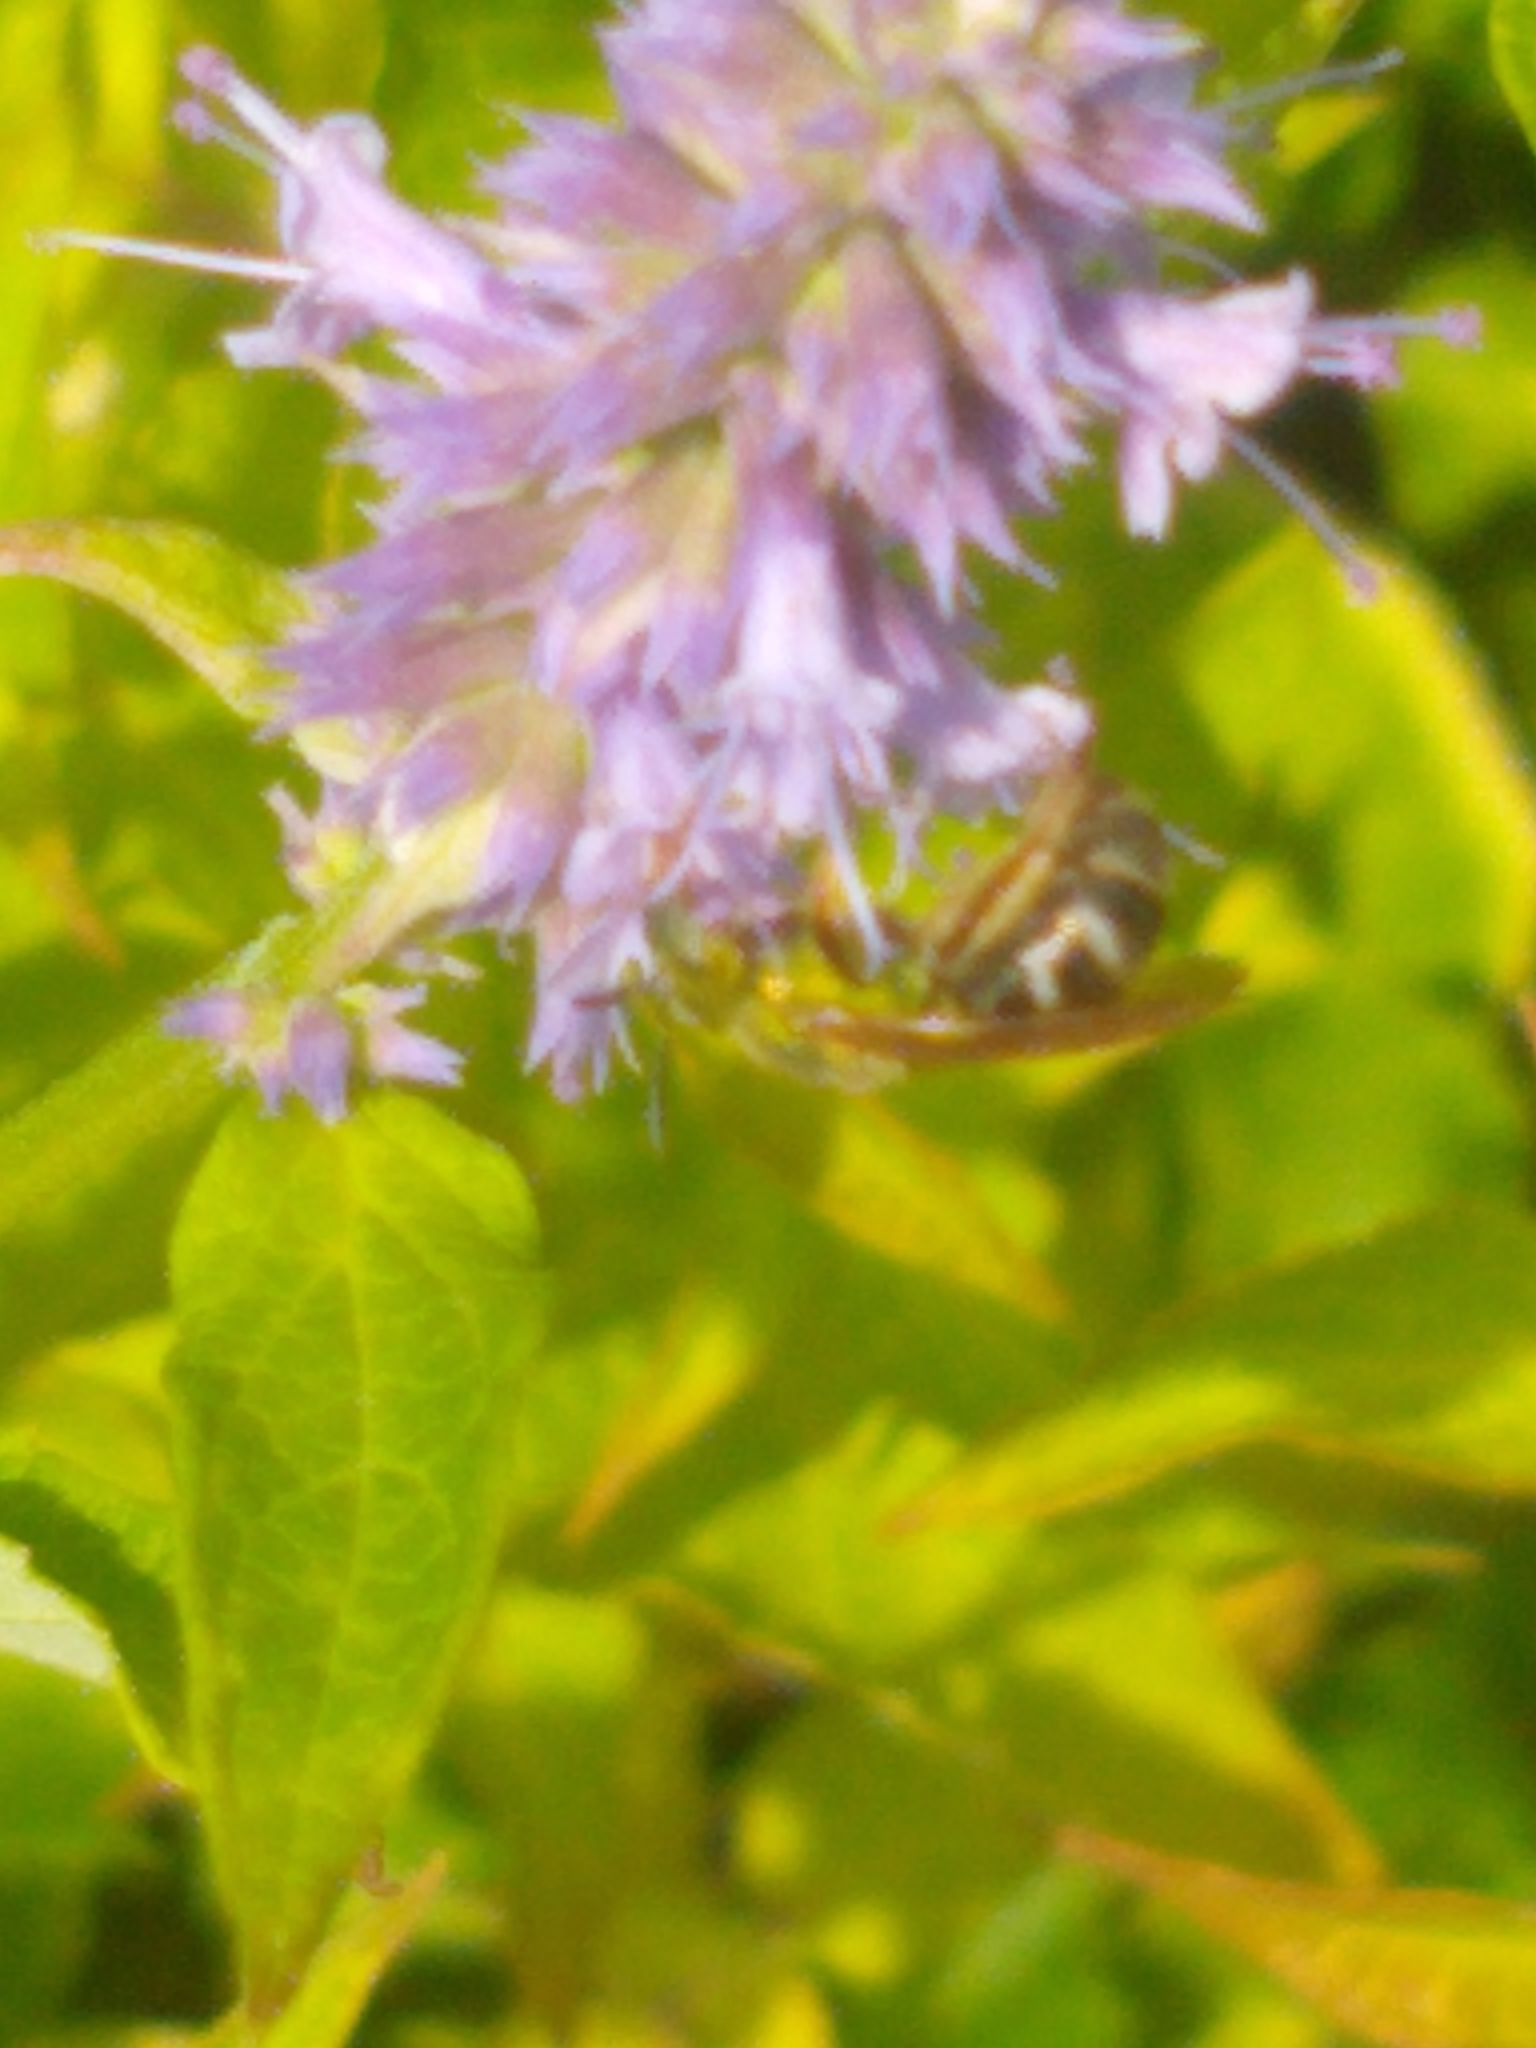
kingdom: Animalia
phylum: Arthropoda
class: Insecta
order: Hymenoptera
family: Halictidae
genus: Agapostemon
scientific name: Agapostemon virescens
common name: Bicolored striped sweat bee
